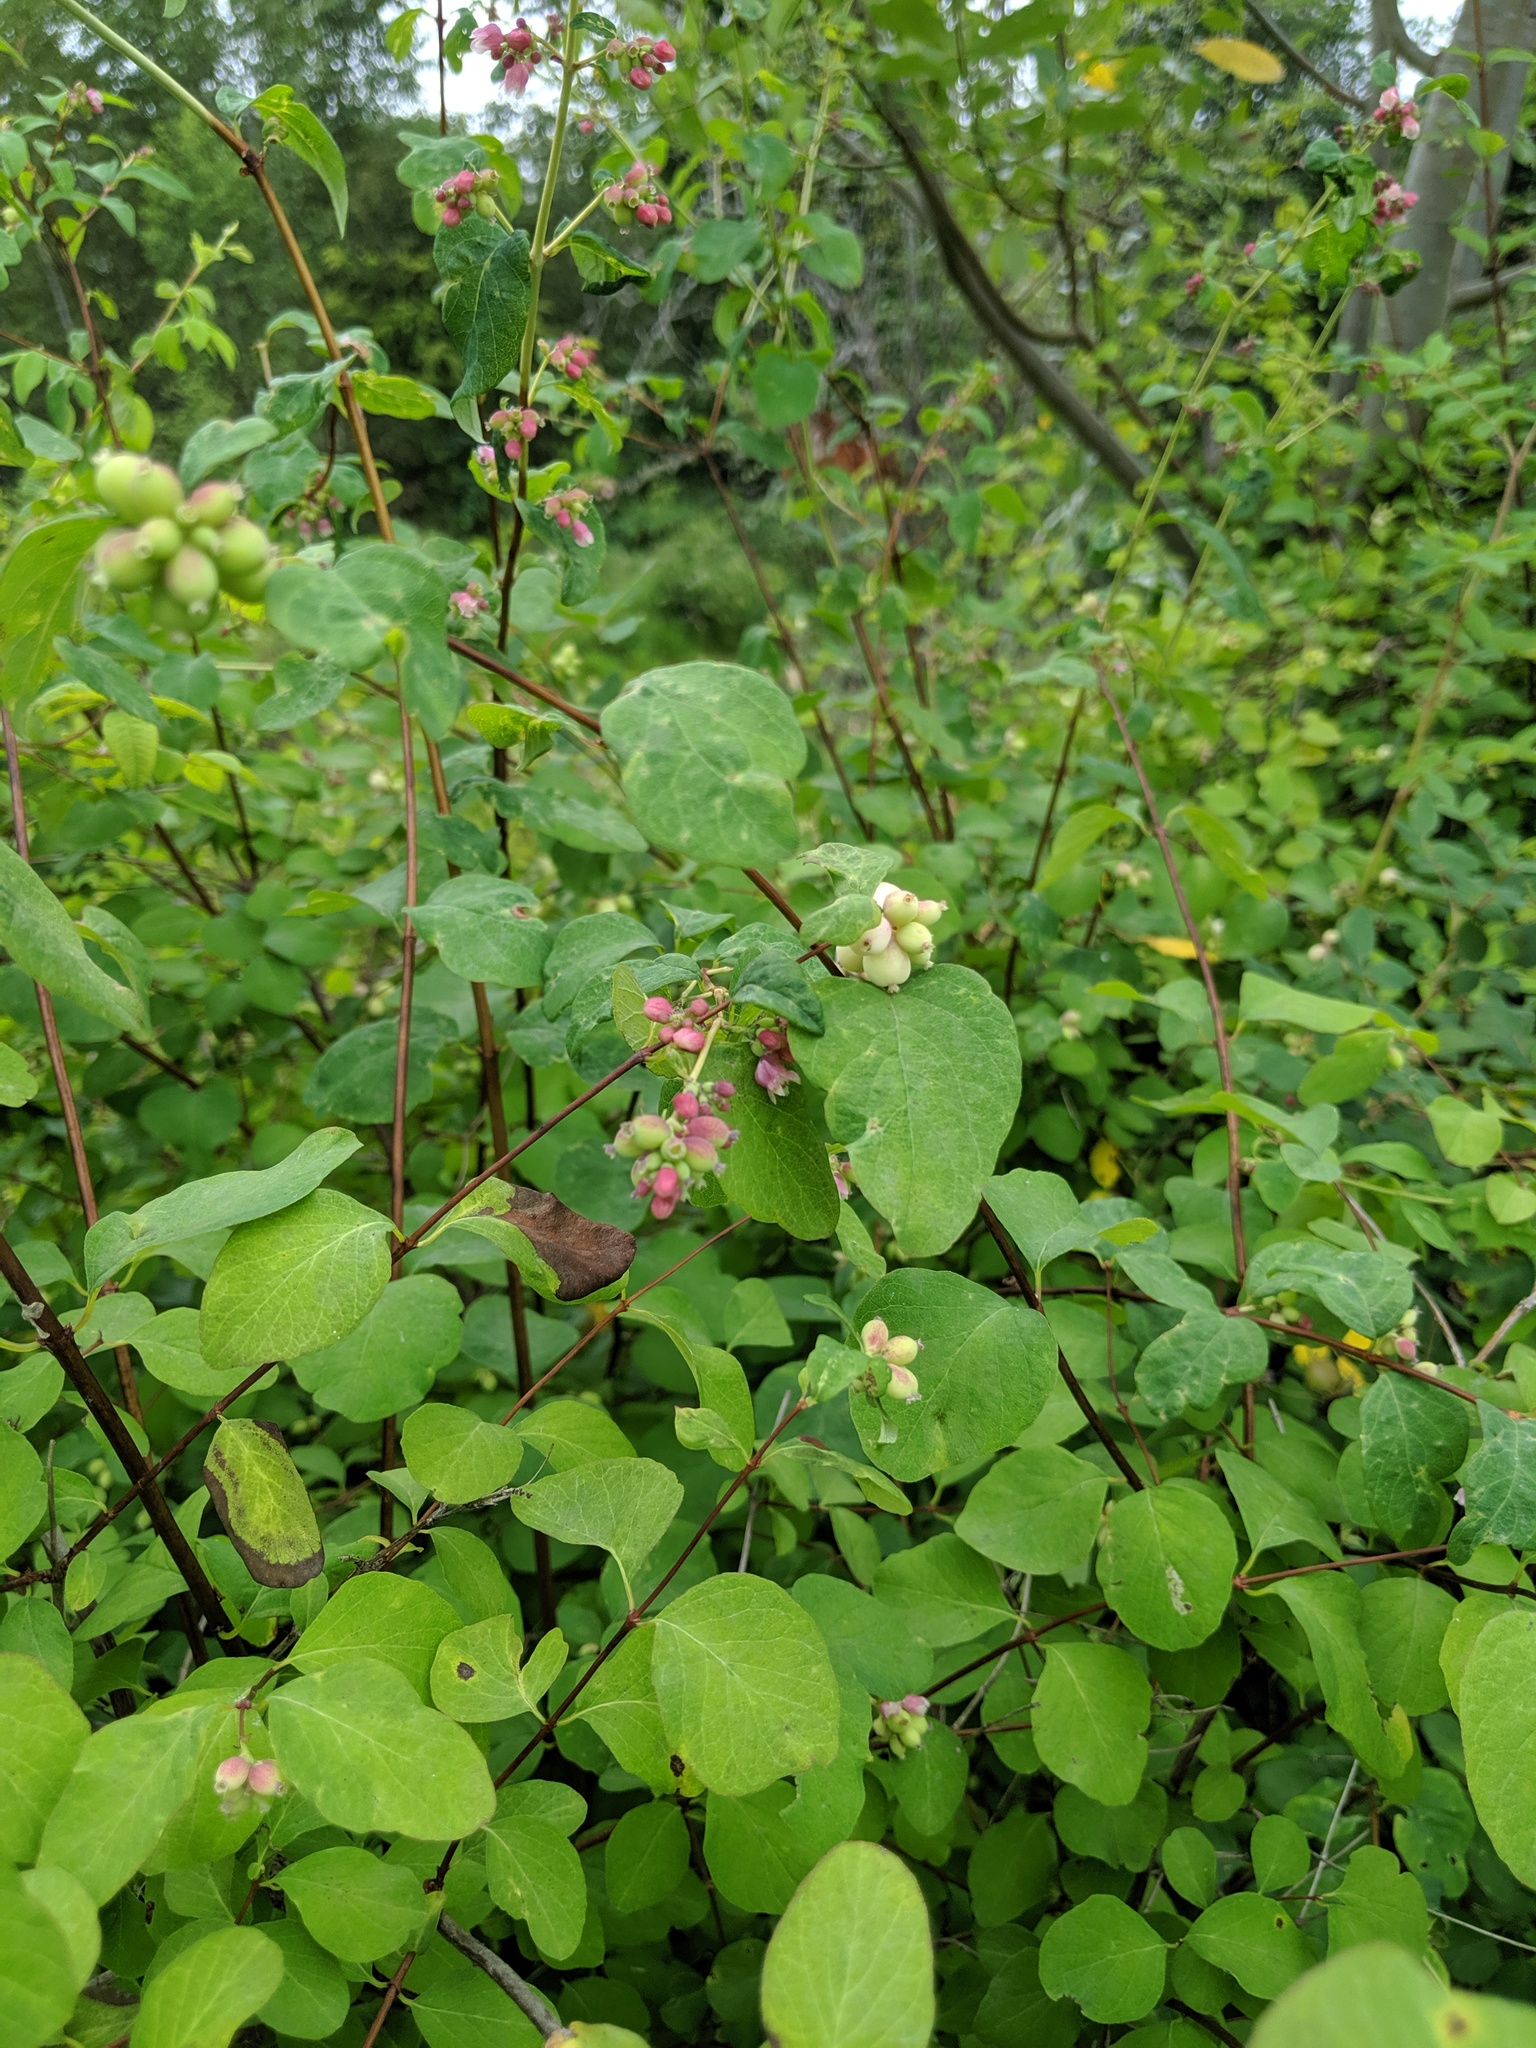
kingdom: Plantae
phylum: Tracheophyta
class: Magnoliopsida
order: Dipsacales
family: Caprifoliaceae
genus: Symphoricarpos
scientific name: Symphoricarpos albus
